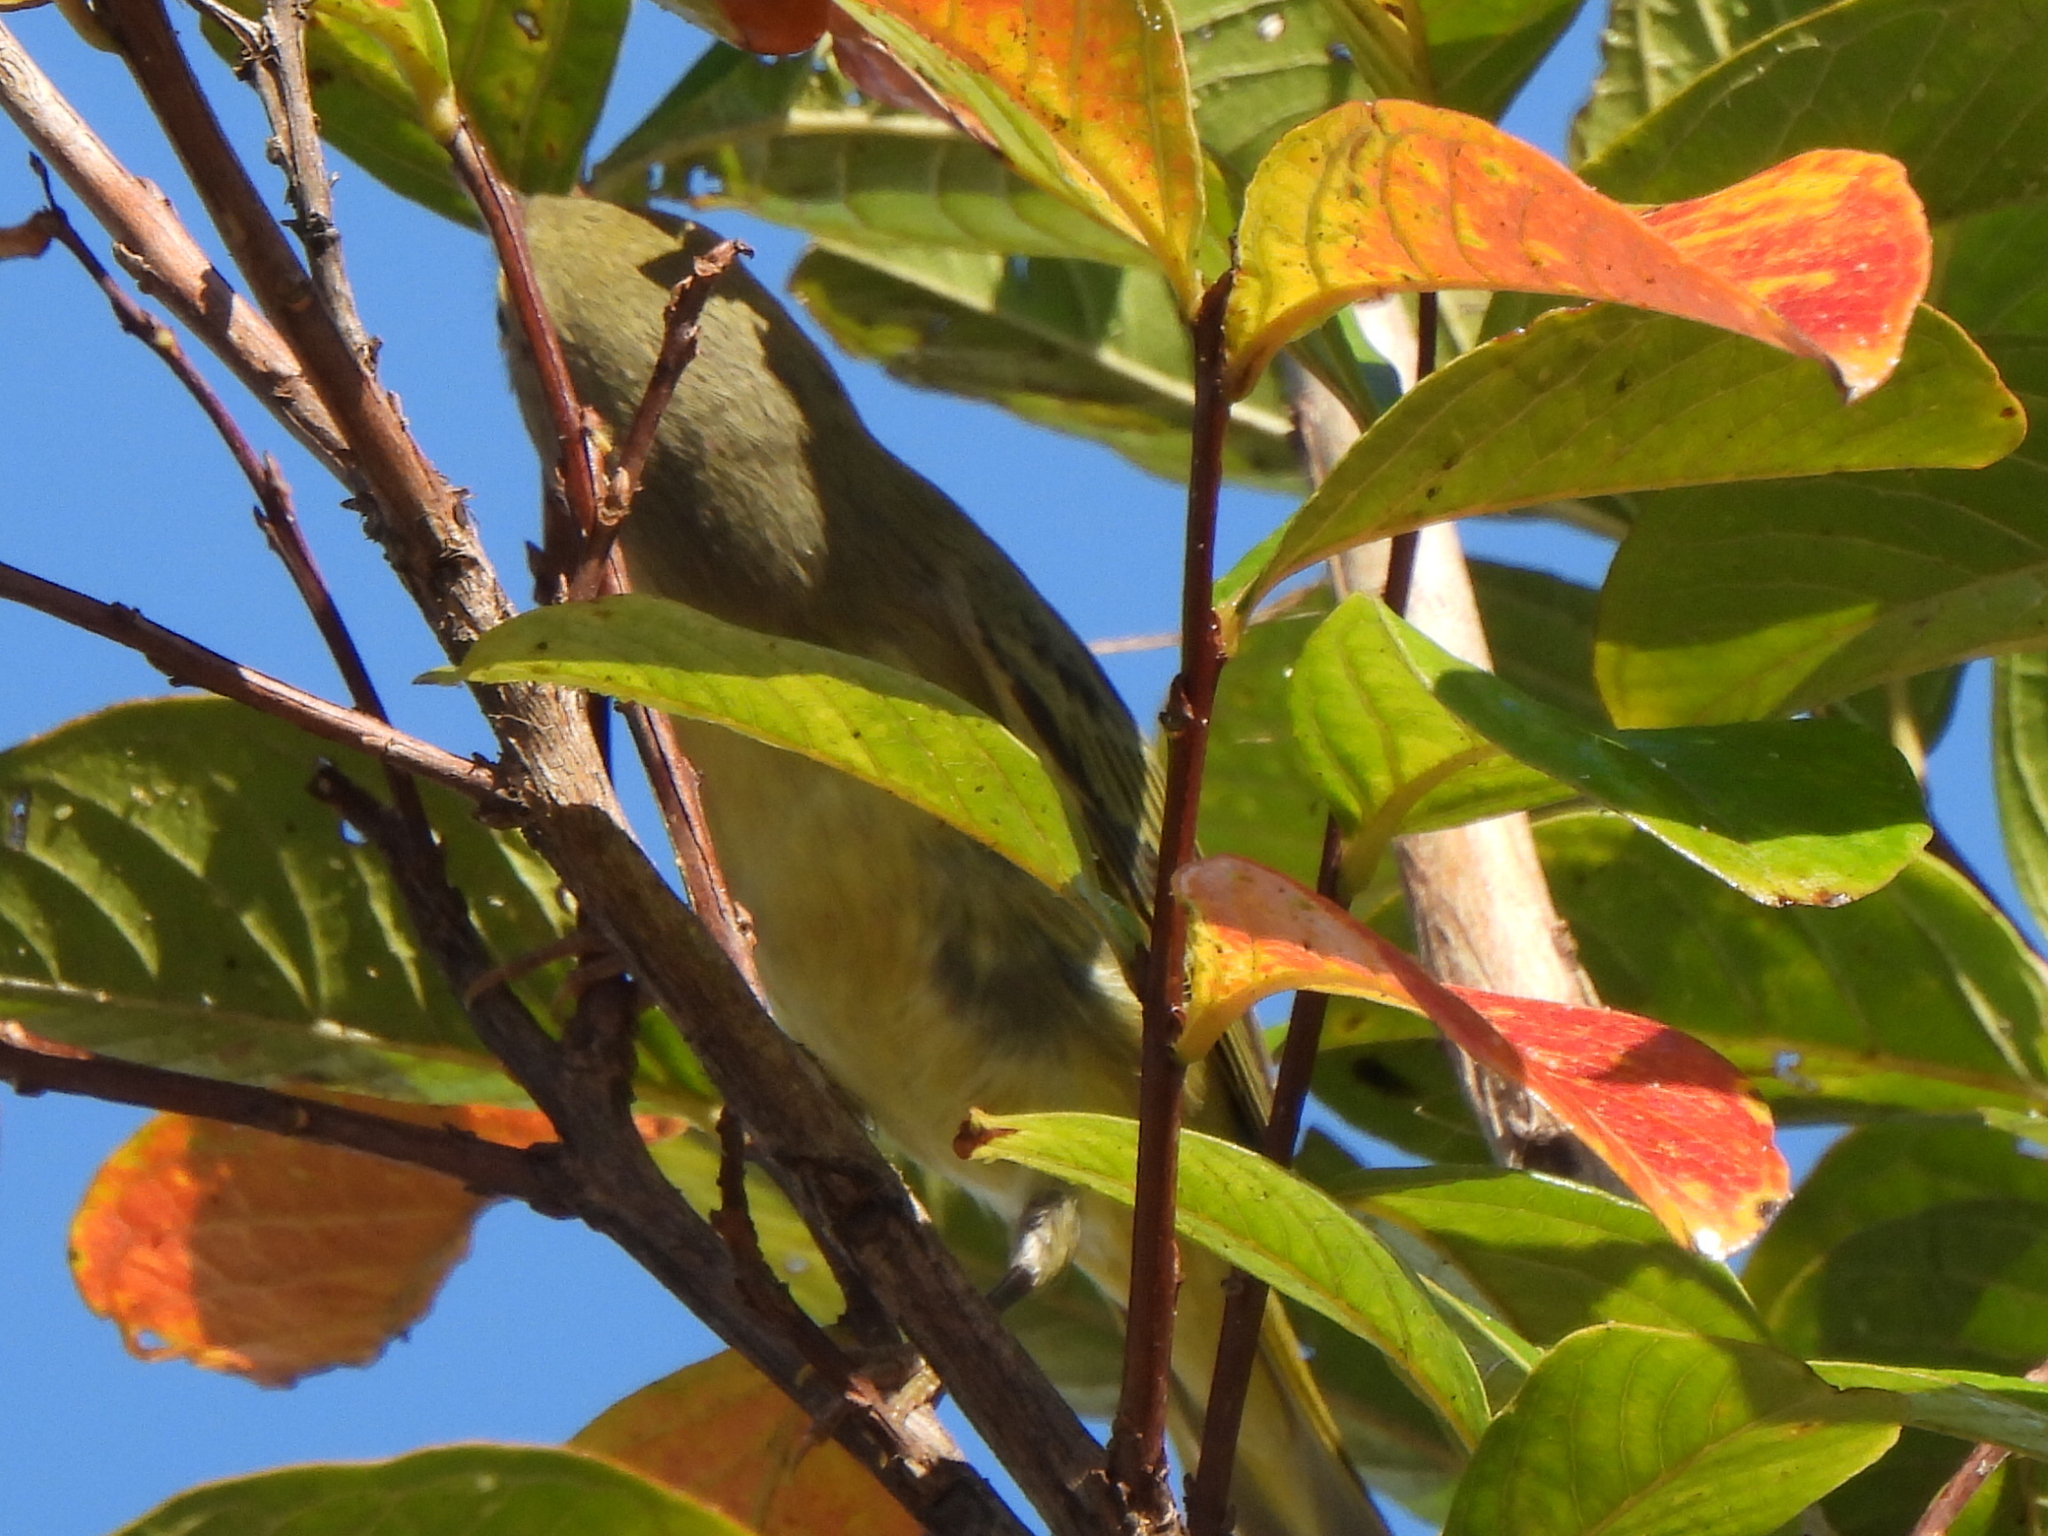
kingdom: Animalia
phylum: Chordata
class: Aves
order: Passeriformes
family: Parulidae
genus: Setophaga
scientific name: Setophaga petechia
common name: Yellow warbler
